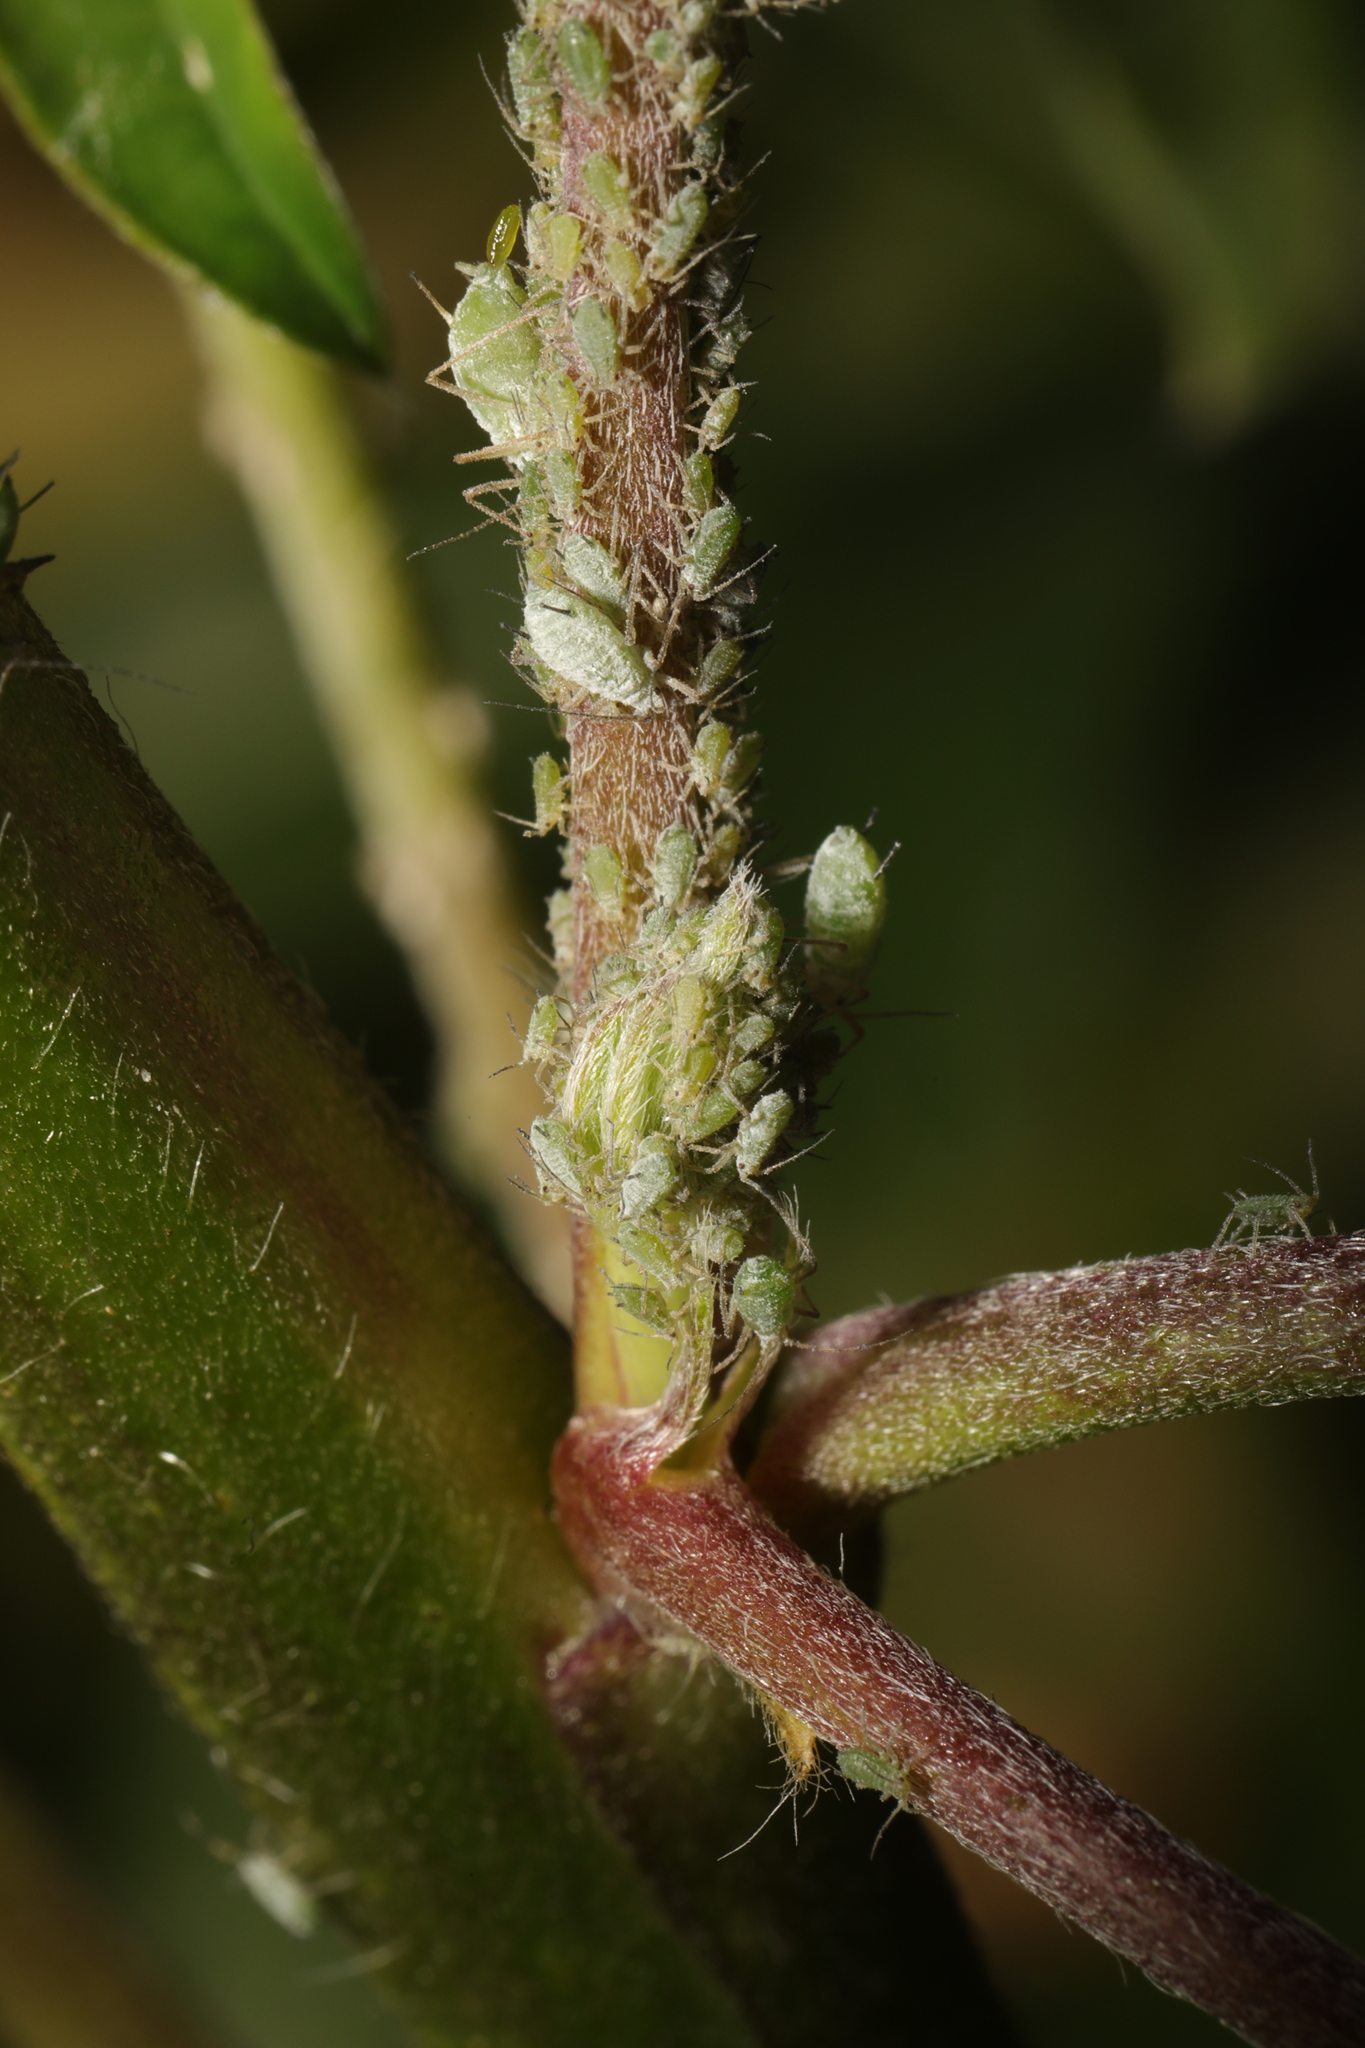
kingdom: Animalia
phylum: Arthropoda
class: Insecta
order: Hemiptera
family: Aphididae
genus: Macrosiphum
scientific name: Macrosiphum albifrons
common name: Lupine aphid
